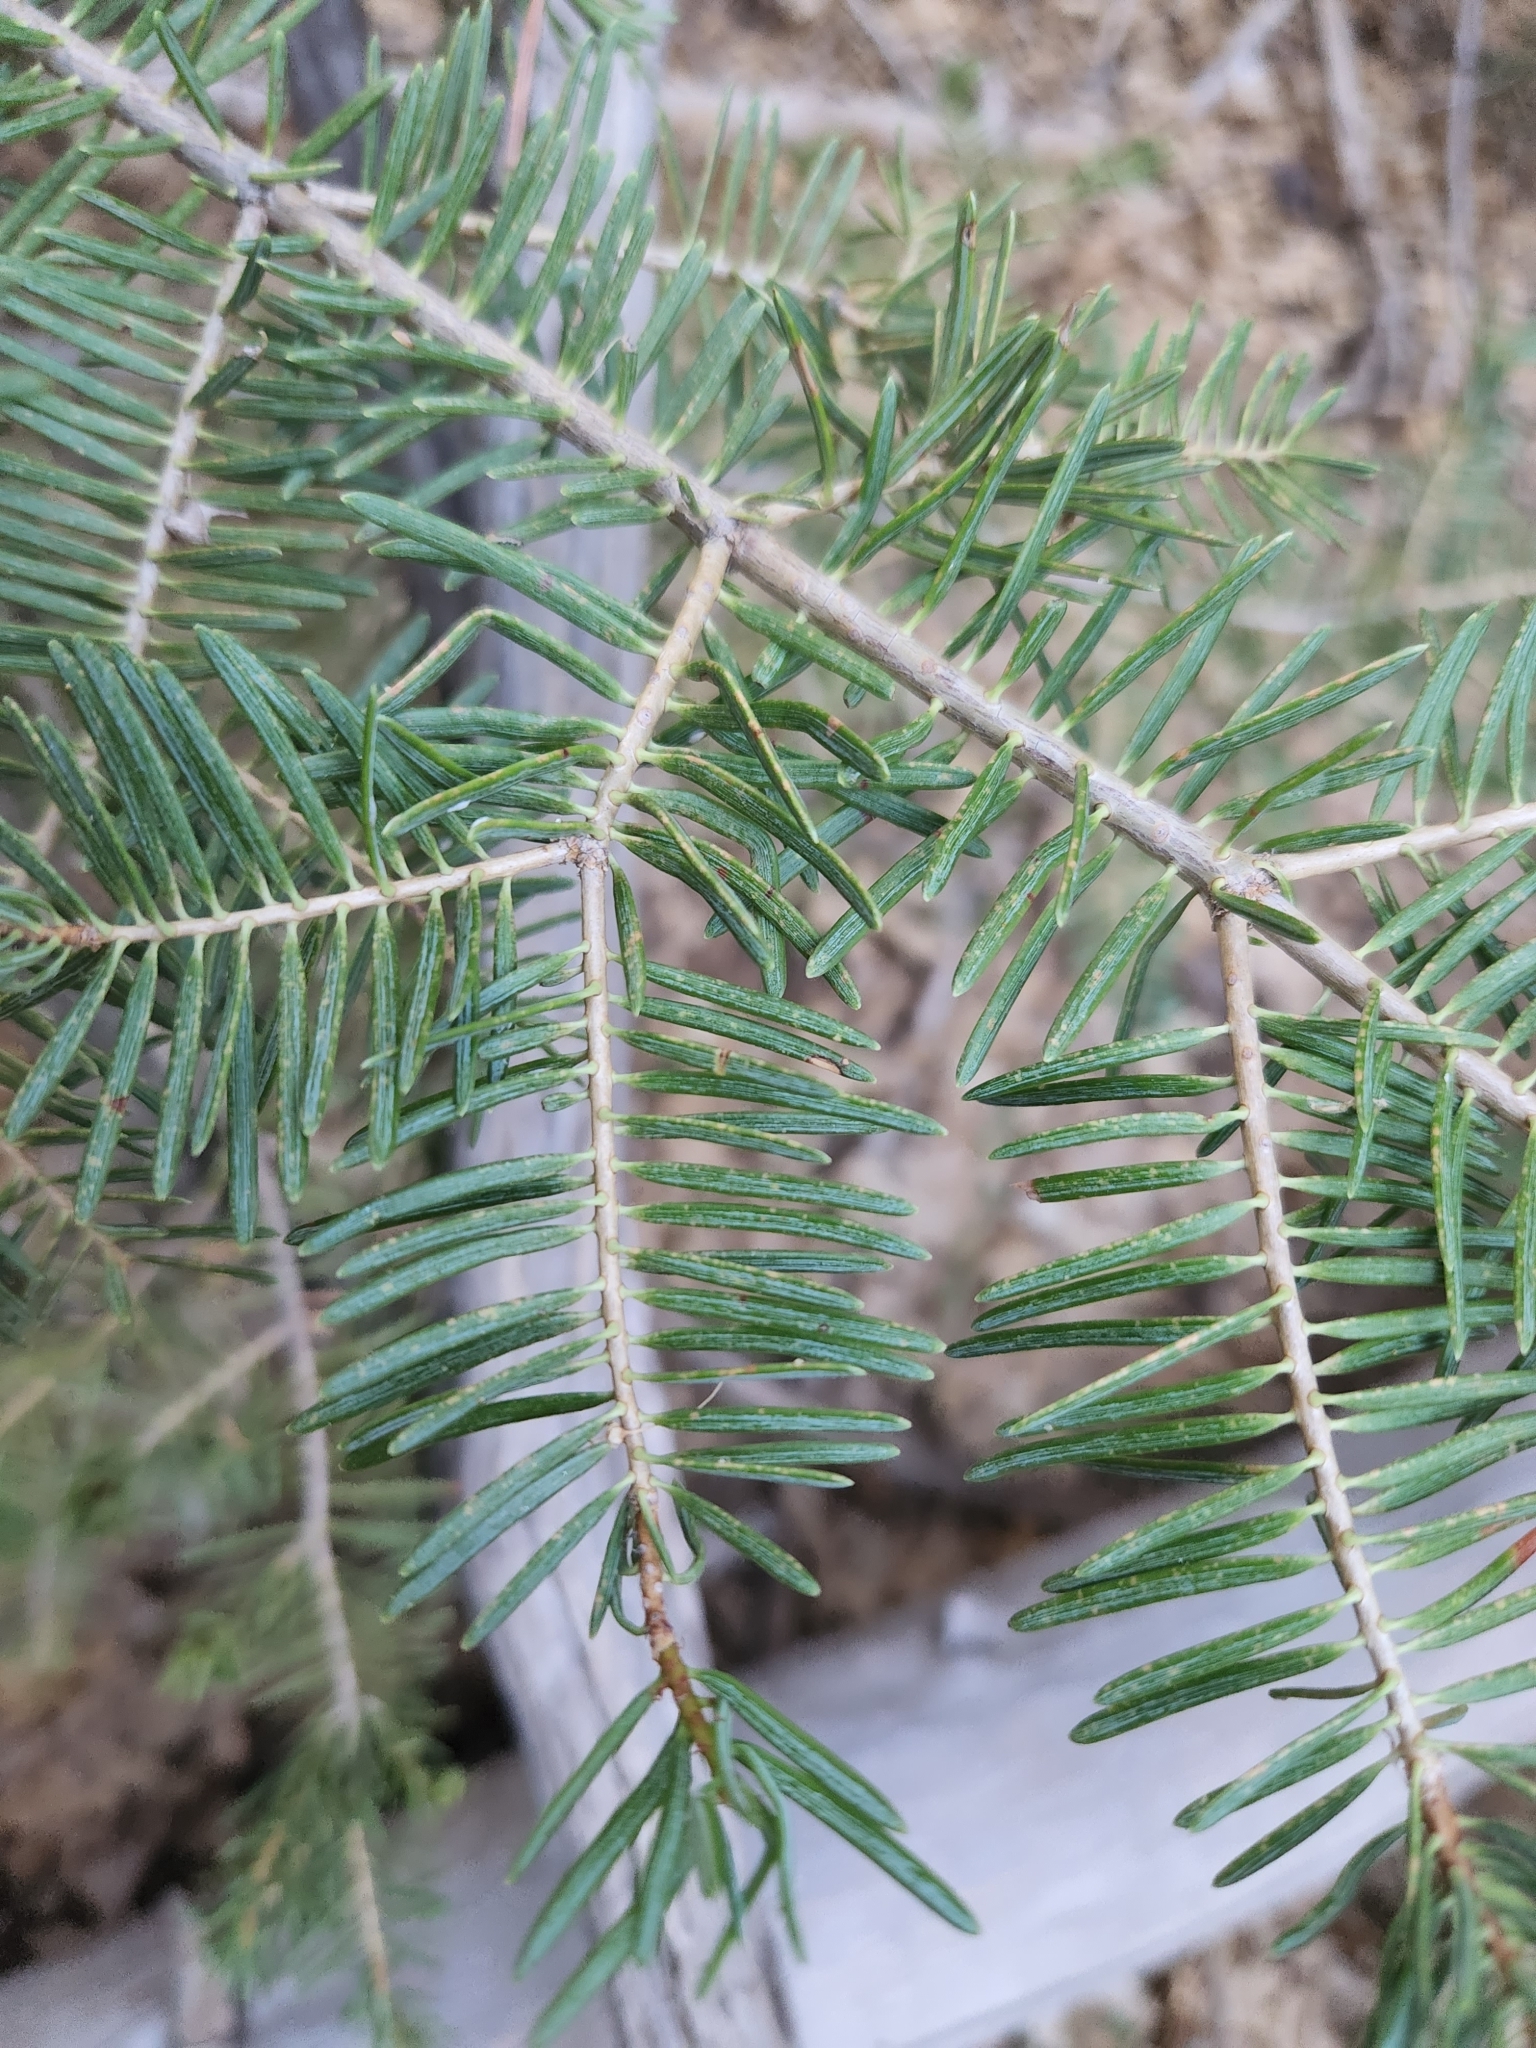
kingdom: Plantae
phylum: Tracheophyta
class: Pinopsida
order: Pinales
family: Pinaceae
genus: Abies
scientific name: Abies concolor
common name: Colorado fir
